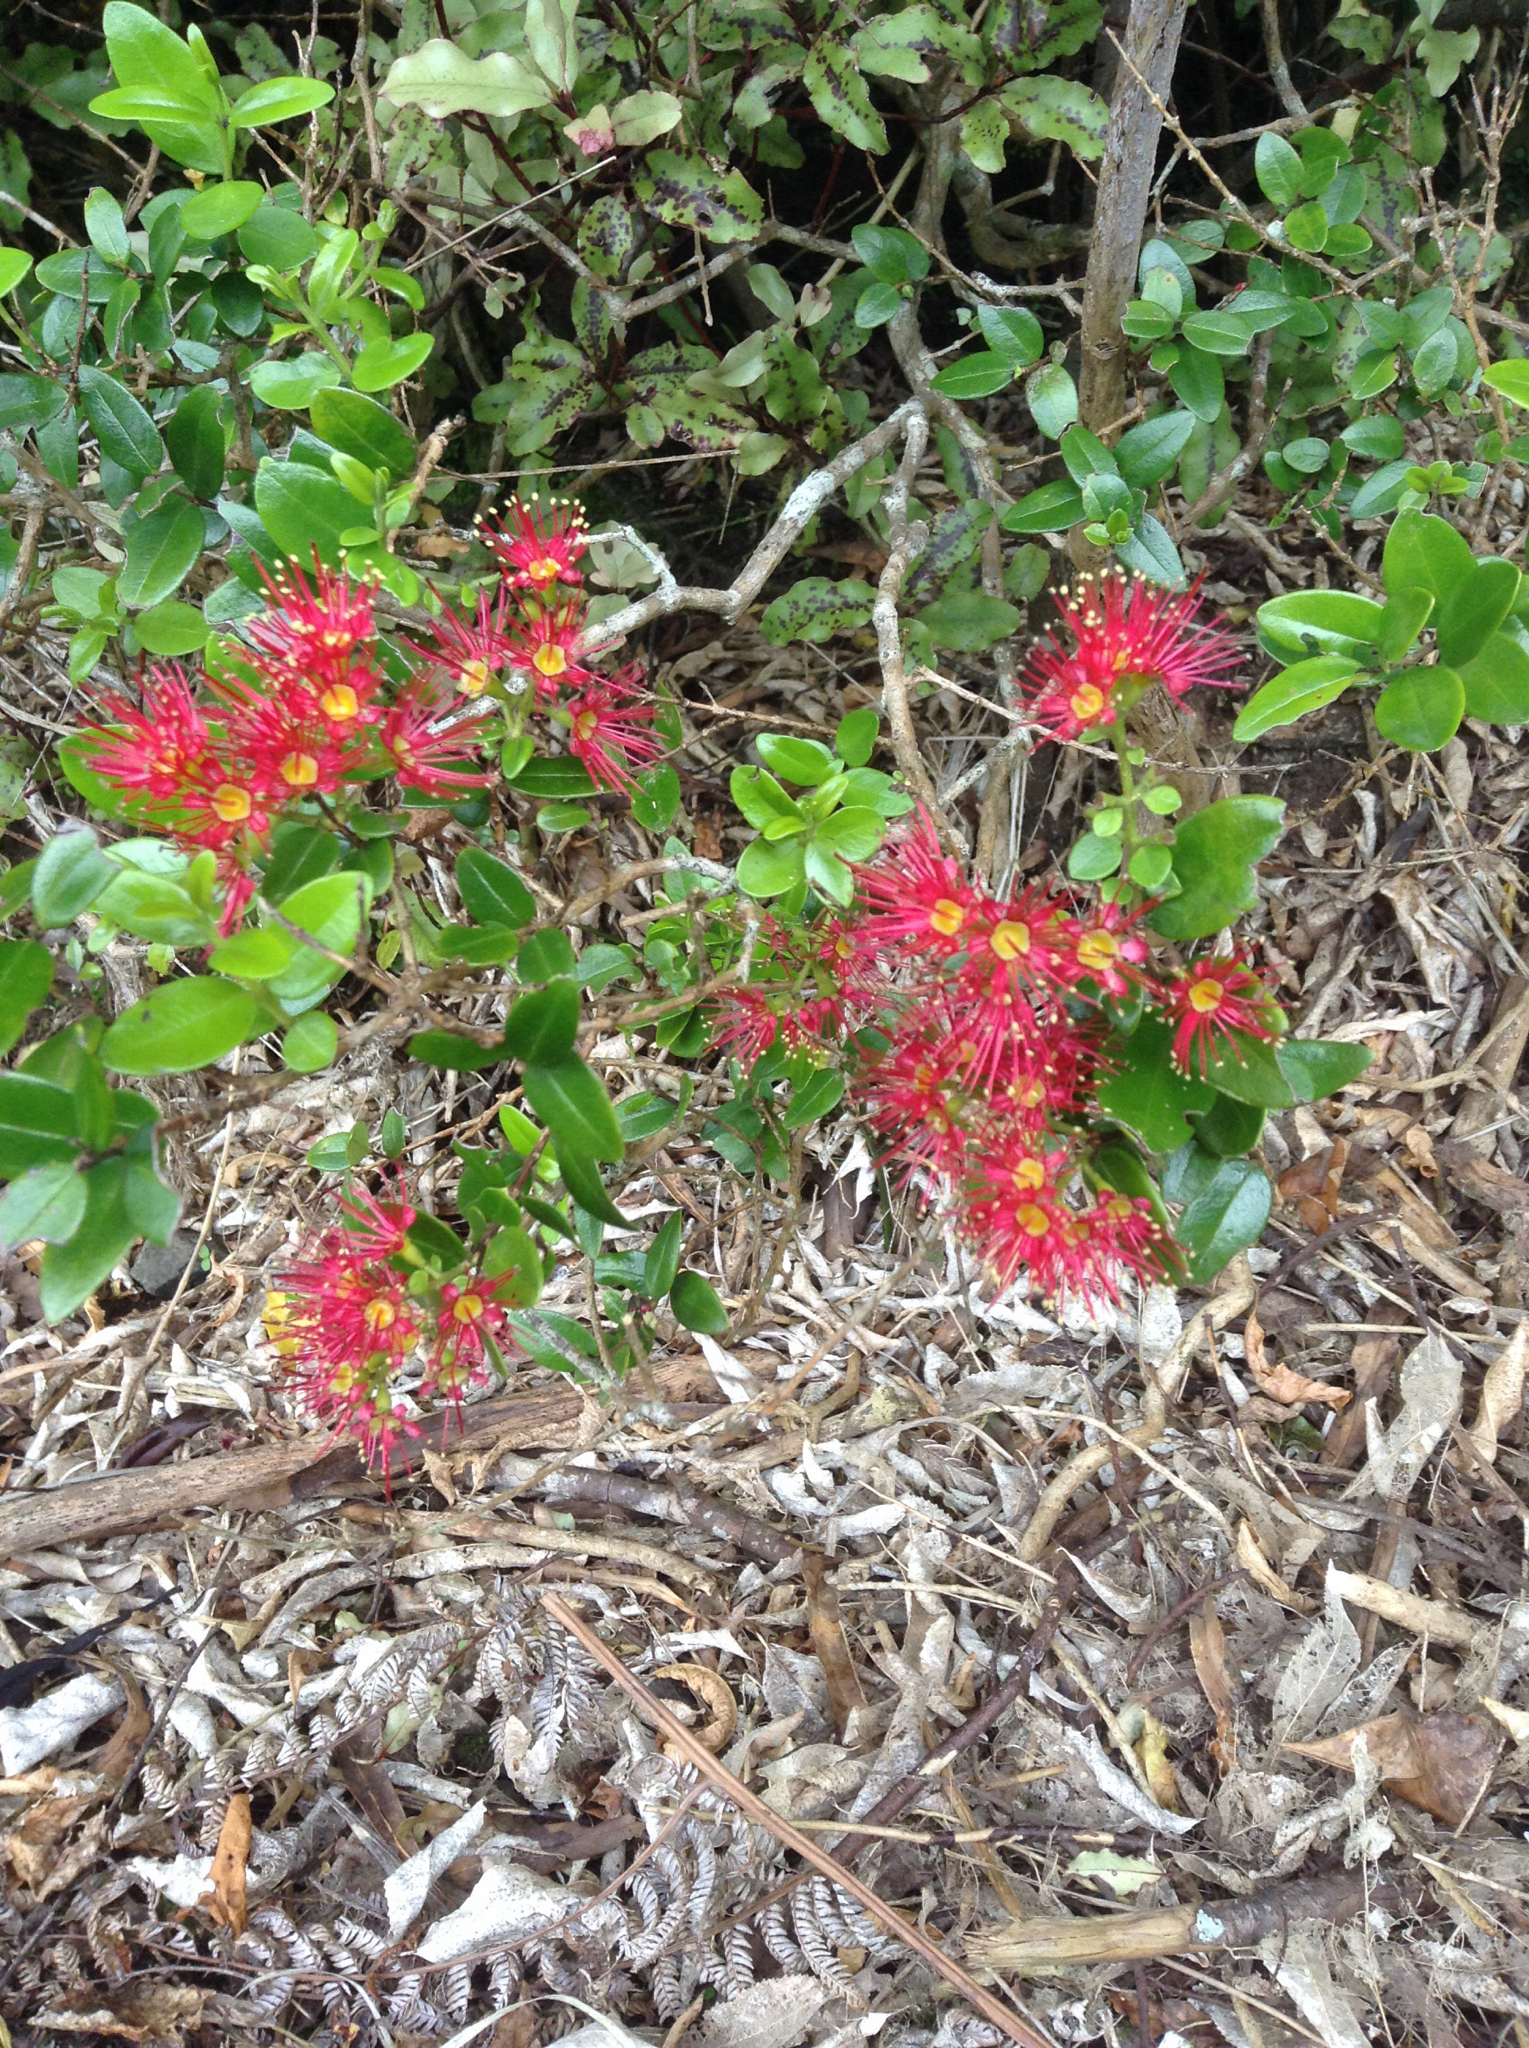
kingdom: Plantae
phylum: Tracheophyta
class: Magnoliopsida
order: Myrtales
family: Myrtaceae
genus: Metrosideros
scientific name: Metrosideros carminea
